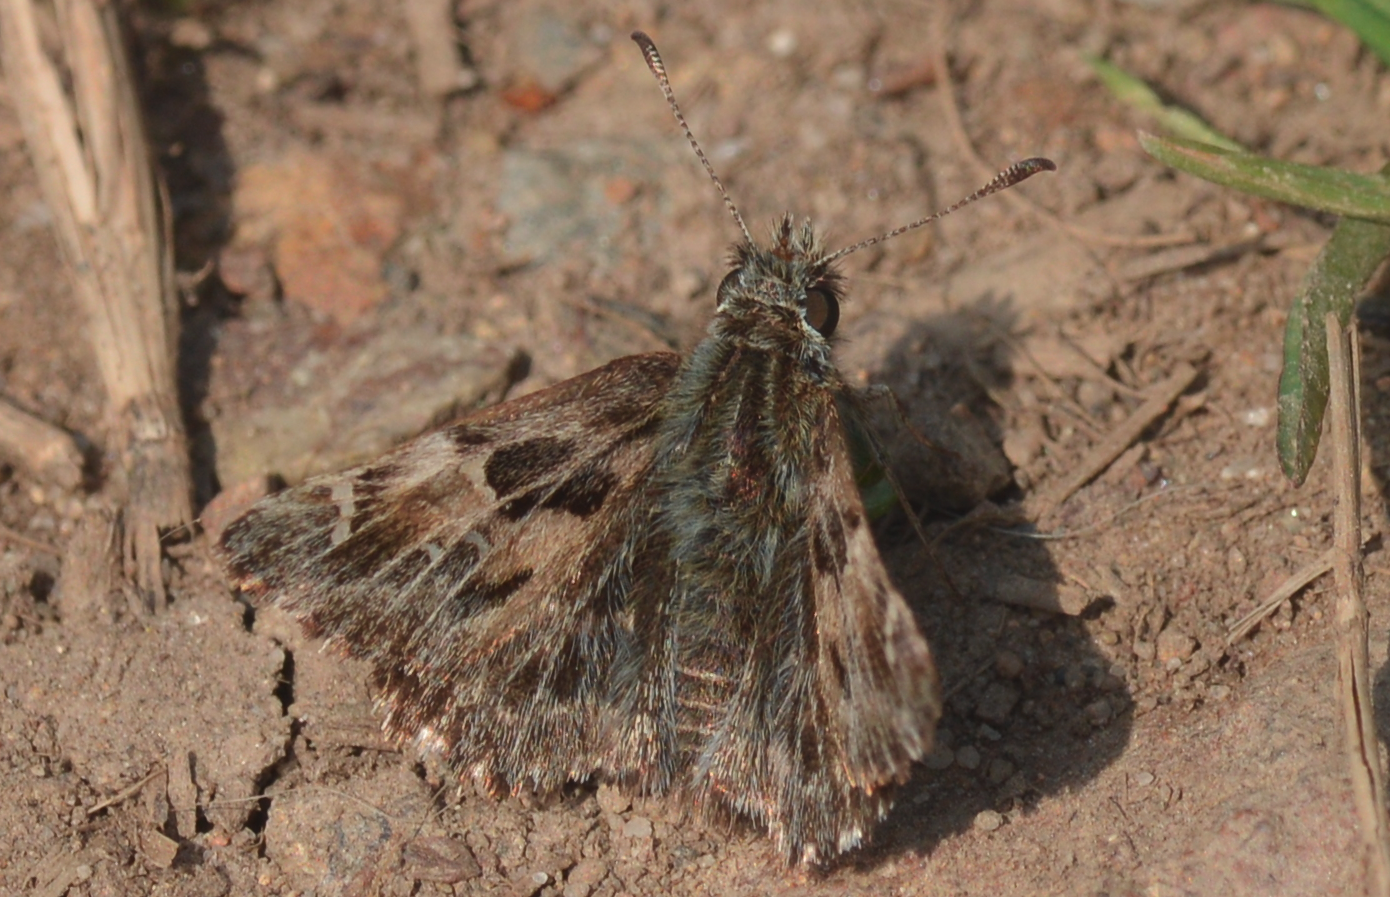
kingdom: Animalia
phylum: Arthropoda
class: Insecta
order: Lepidoptera
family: Hesperiidae
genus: Carcharodus
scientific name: Carcharodus alceae
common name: Mallow skipper
